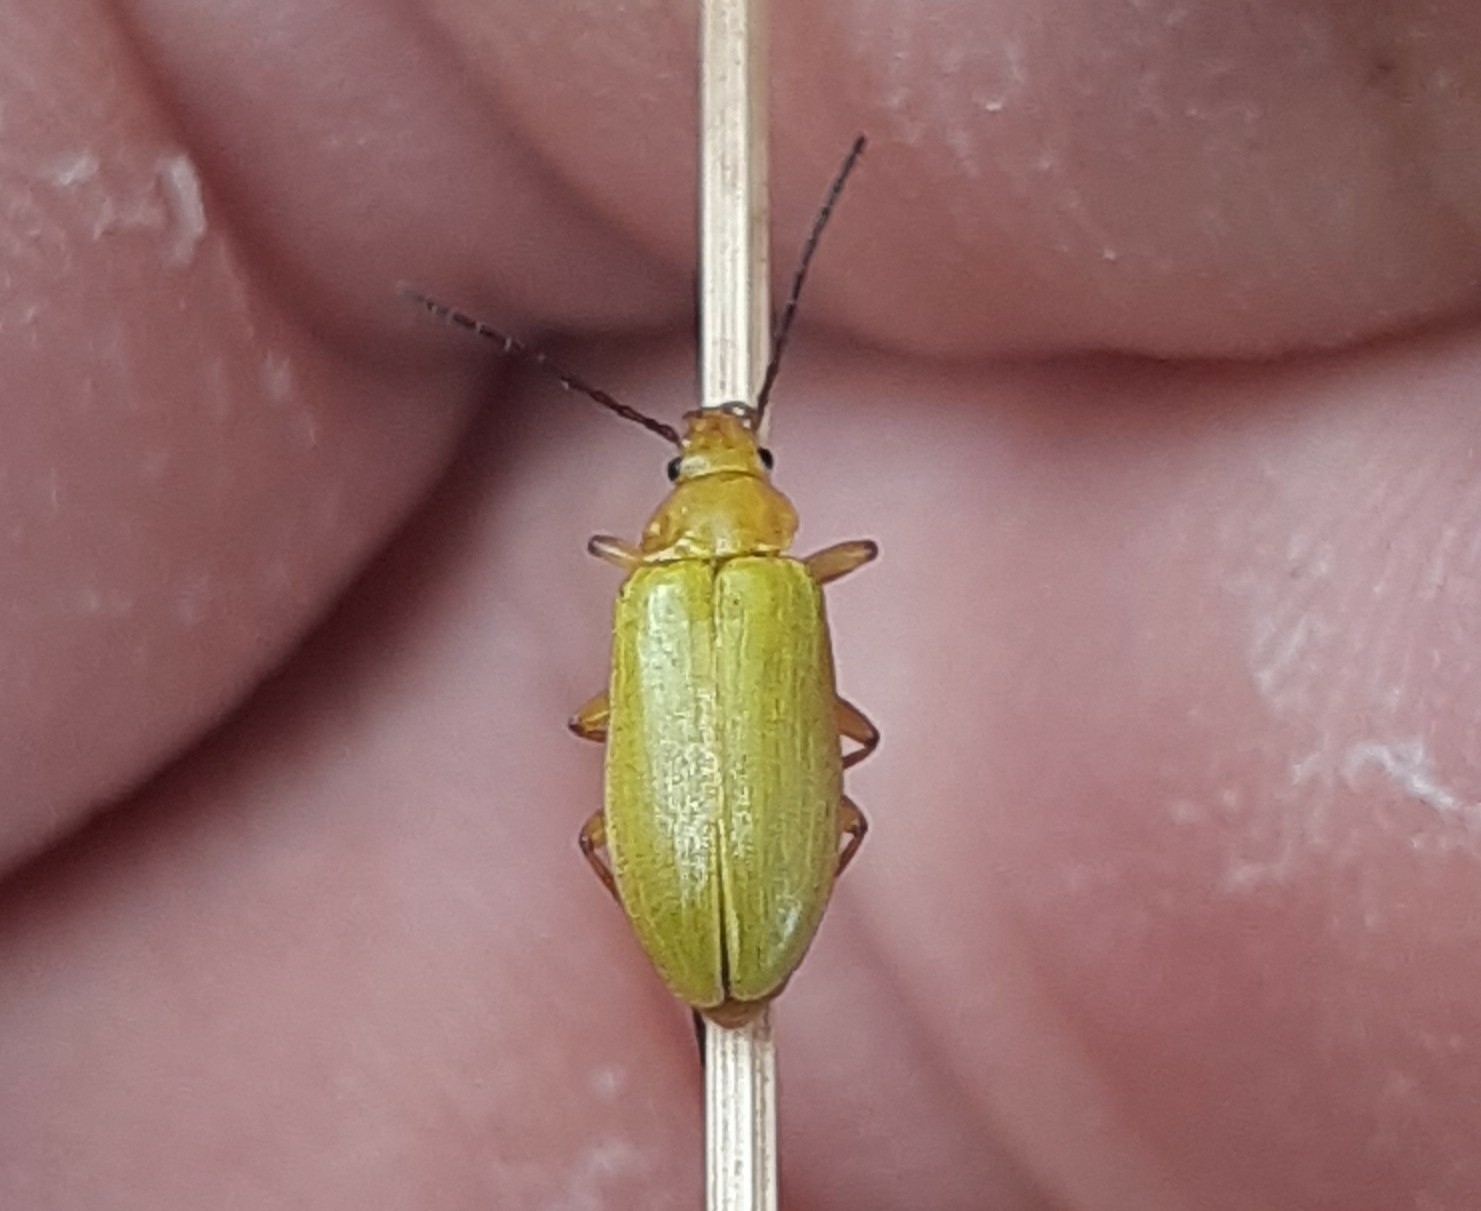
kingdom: Animalia
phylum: Arthropoda
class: Insecta
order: Coleoptera
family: Tenebrionidae
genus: Cteniopus
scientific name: Cteniopus sulphureus
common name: Sulphur beetle
